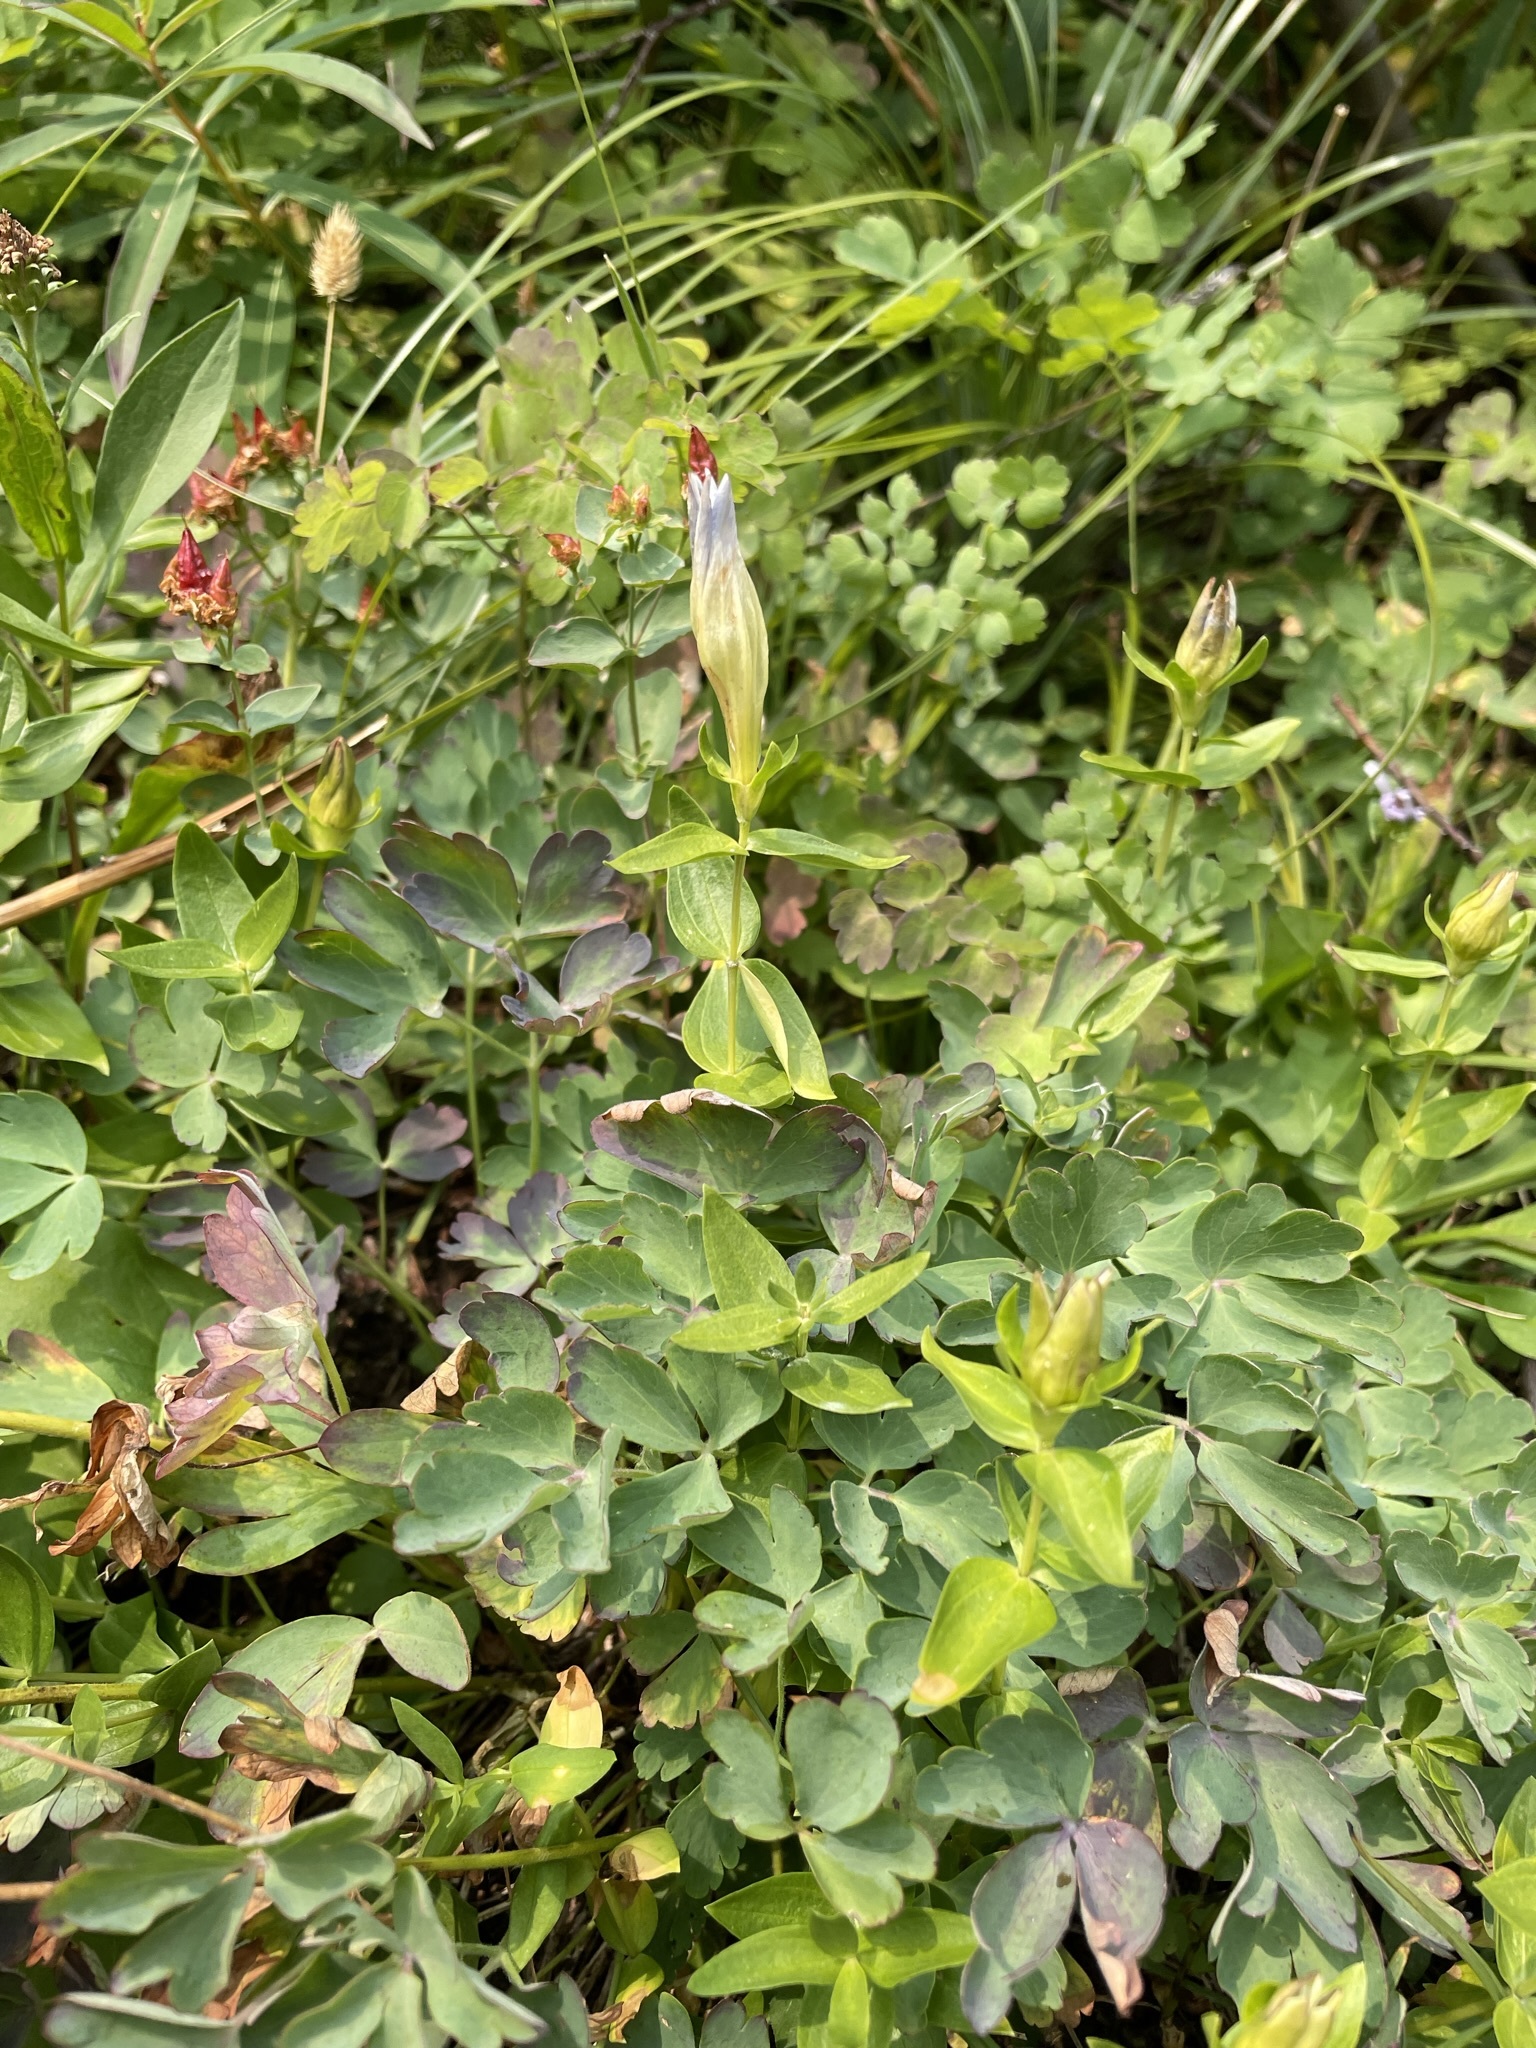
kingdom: Plantae
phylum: Tracheophyta
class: Magnoliopsida
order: Gentianales
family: Gentianaceae
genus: Gentiana
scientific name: Gentiana calycosa
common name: Rainier pleated gentian
